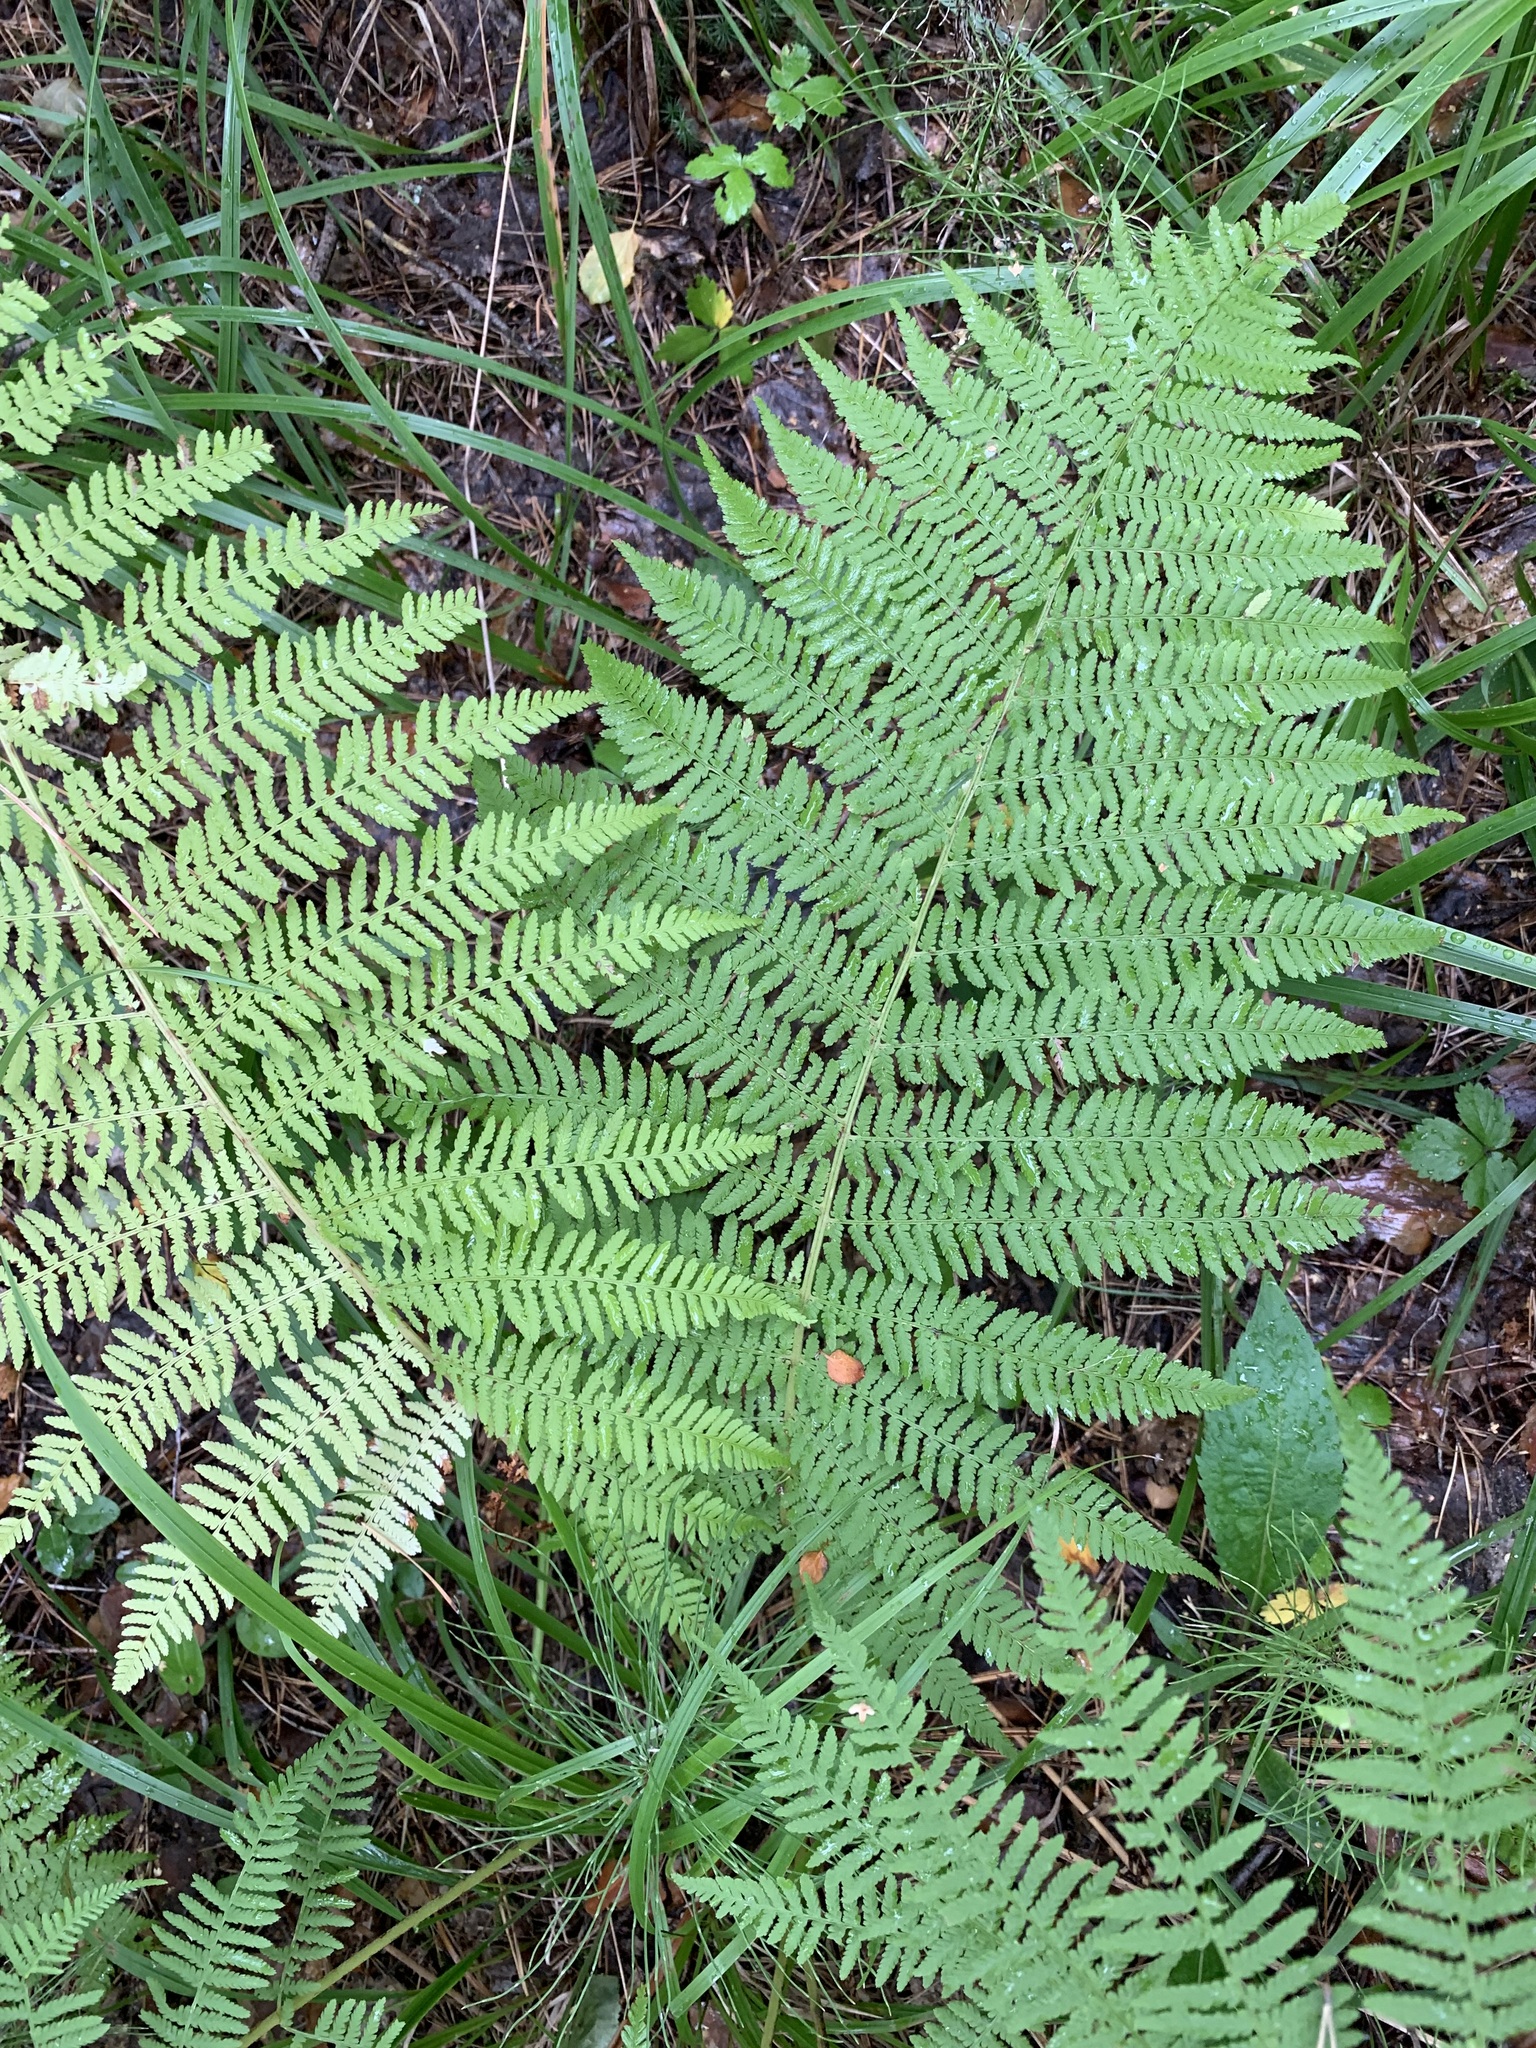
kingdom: Plantae
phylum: Tracheophyta
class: Polypodiopsida
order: Polypodiales
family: Athyriaceae
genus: Athyrium
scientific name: Athyrium filix-femina
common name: Lady fern
